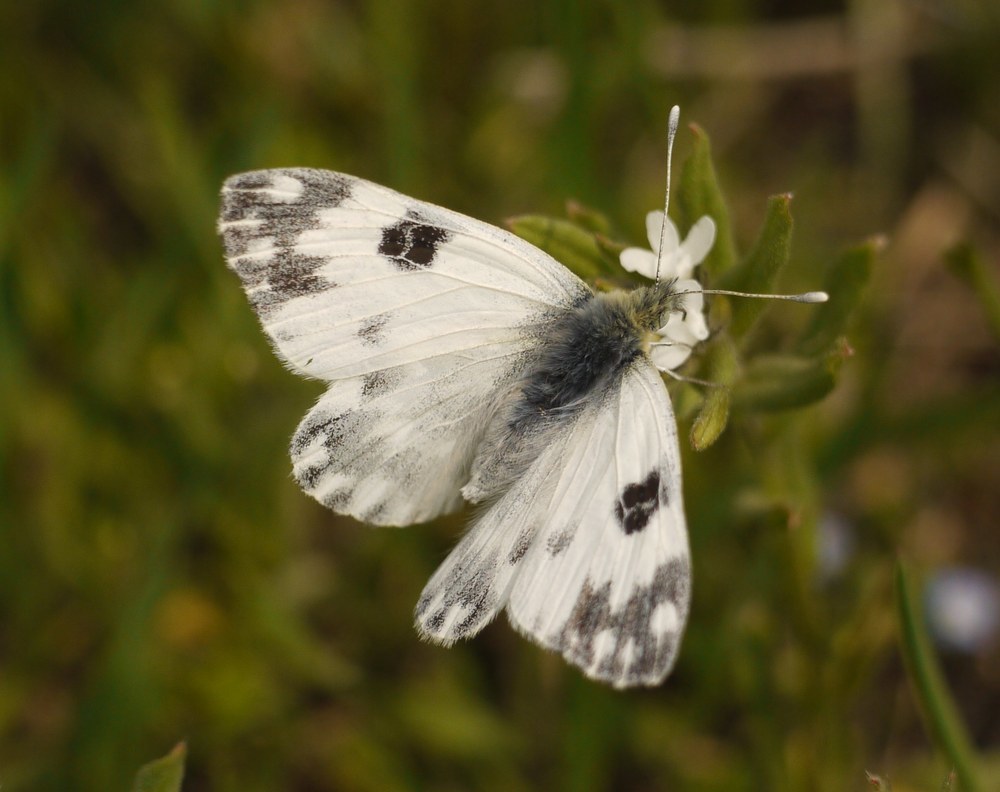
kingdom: Animalia
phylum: Arthropoda
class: Insecta
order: Lepidoptera
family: Pieridae
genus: Pontia
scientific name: Pontia edusa
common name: Eastern bath white
